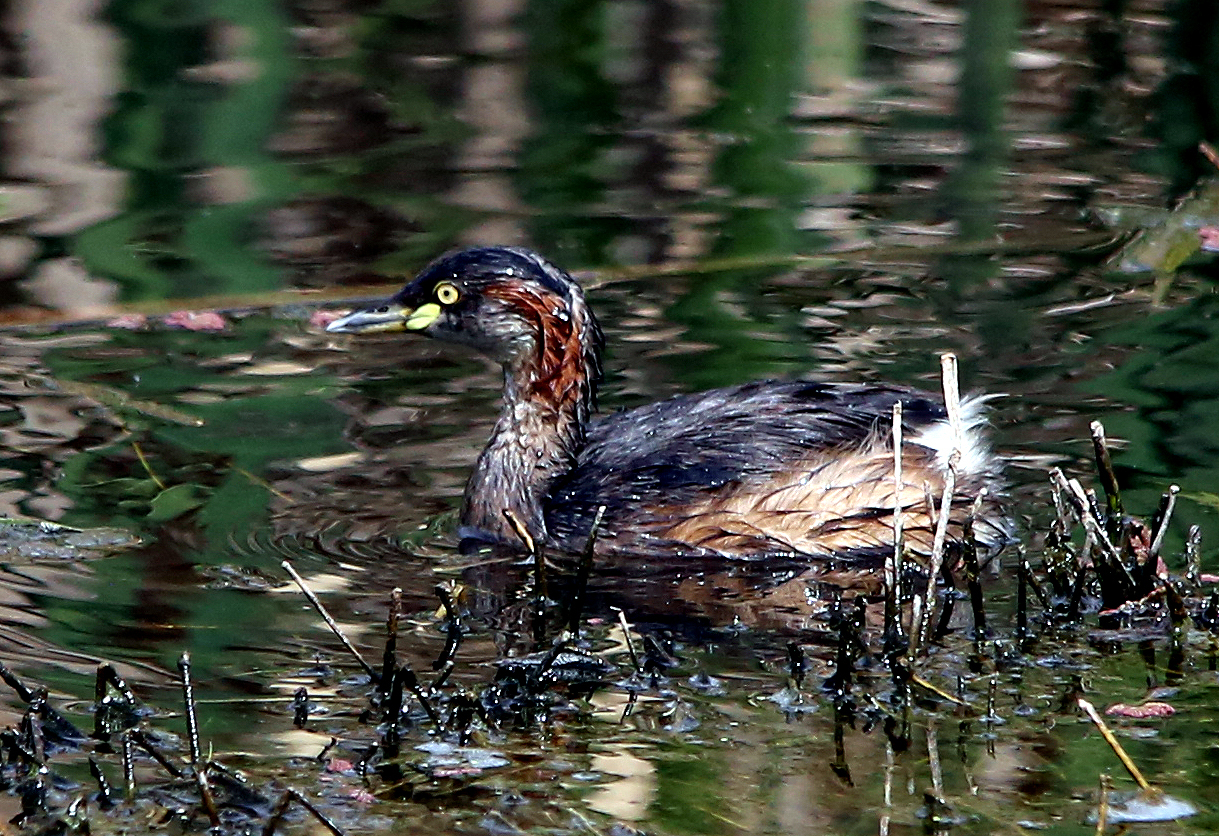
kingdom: Animalia
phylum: Chordata
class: Aves
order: Podicipediformes
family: Podicipedidae
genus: Tachybaptus
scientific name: Tachybaptus novaehollandiae
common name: Australasian grebe
